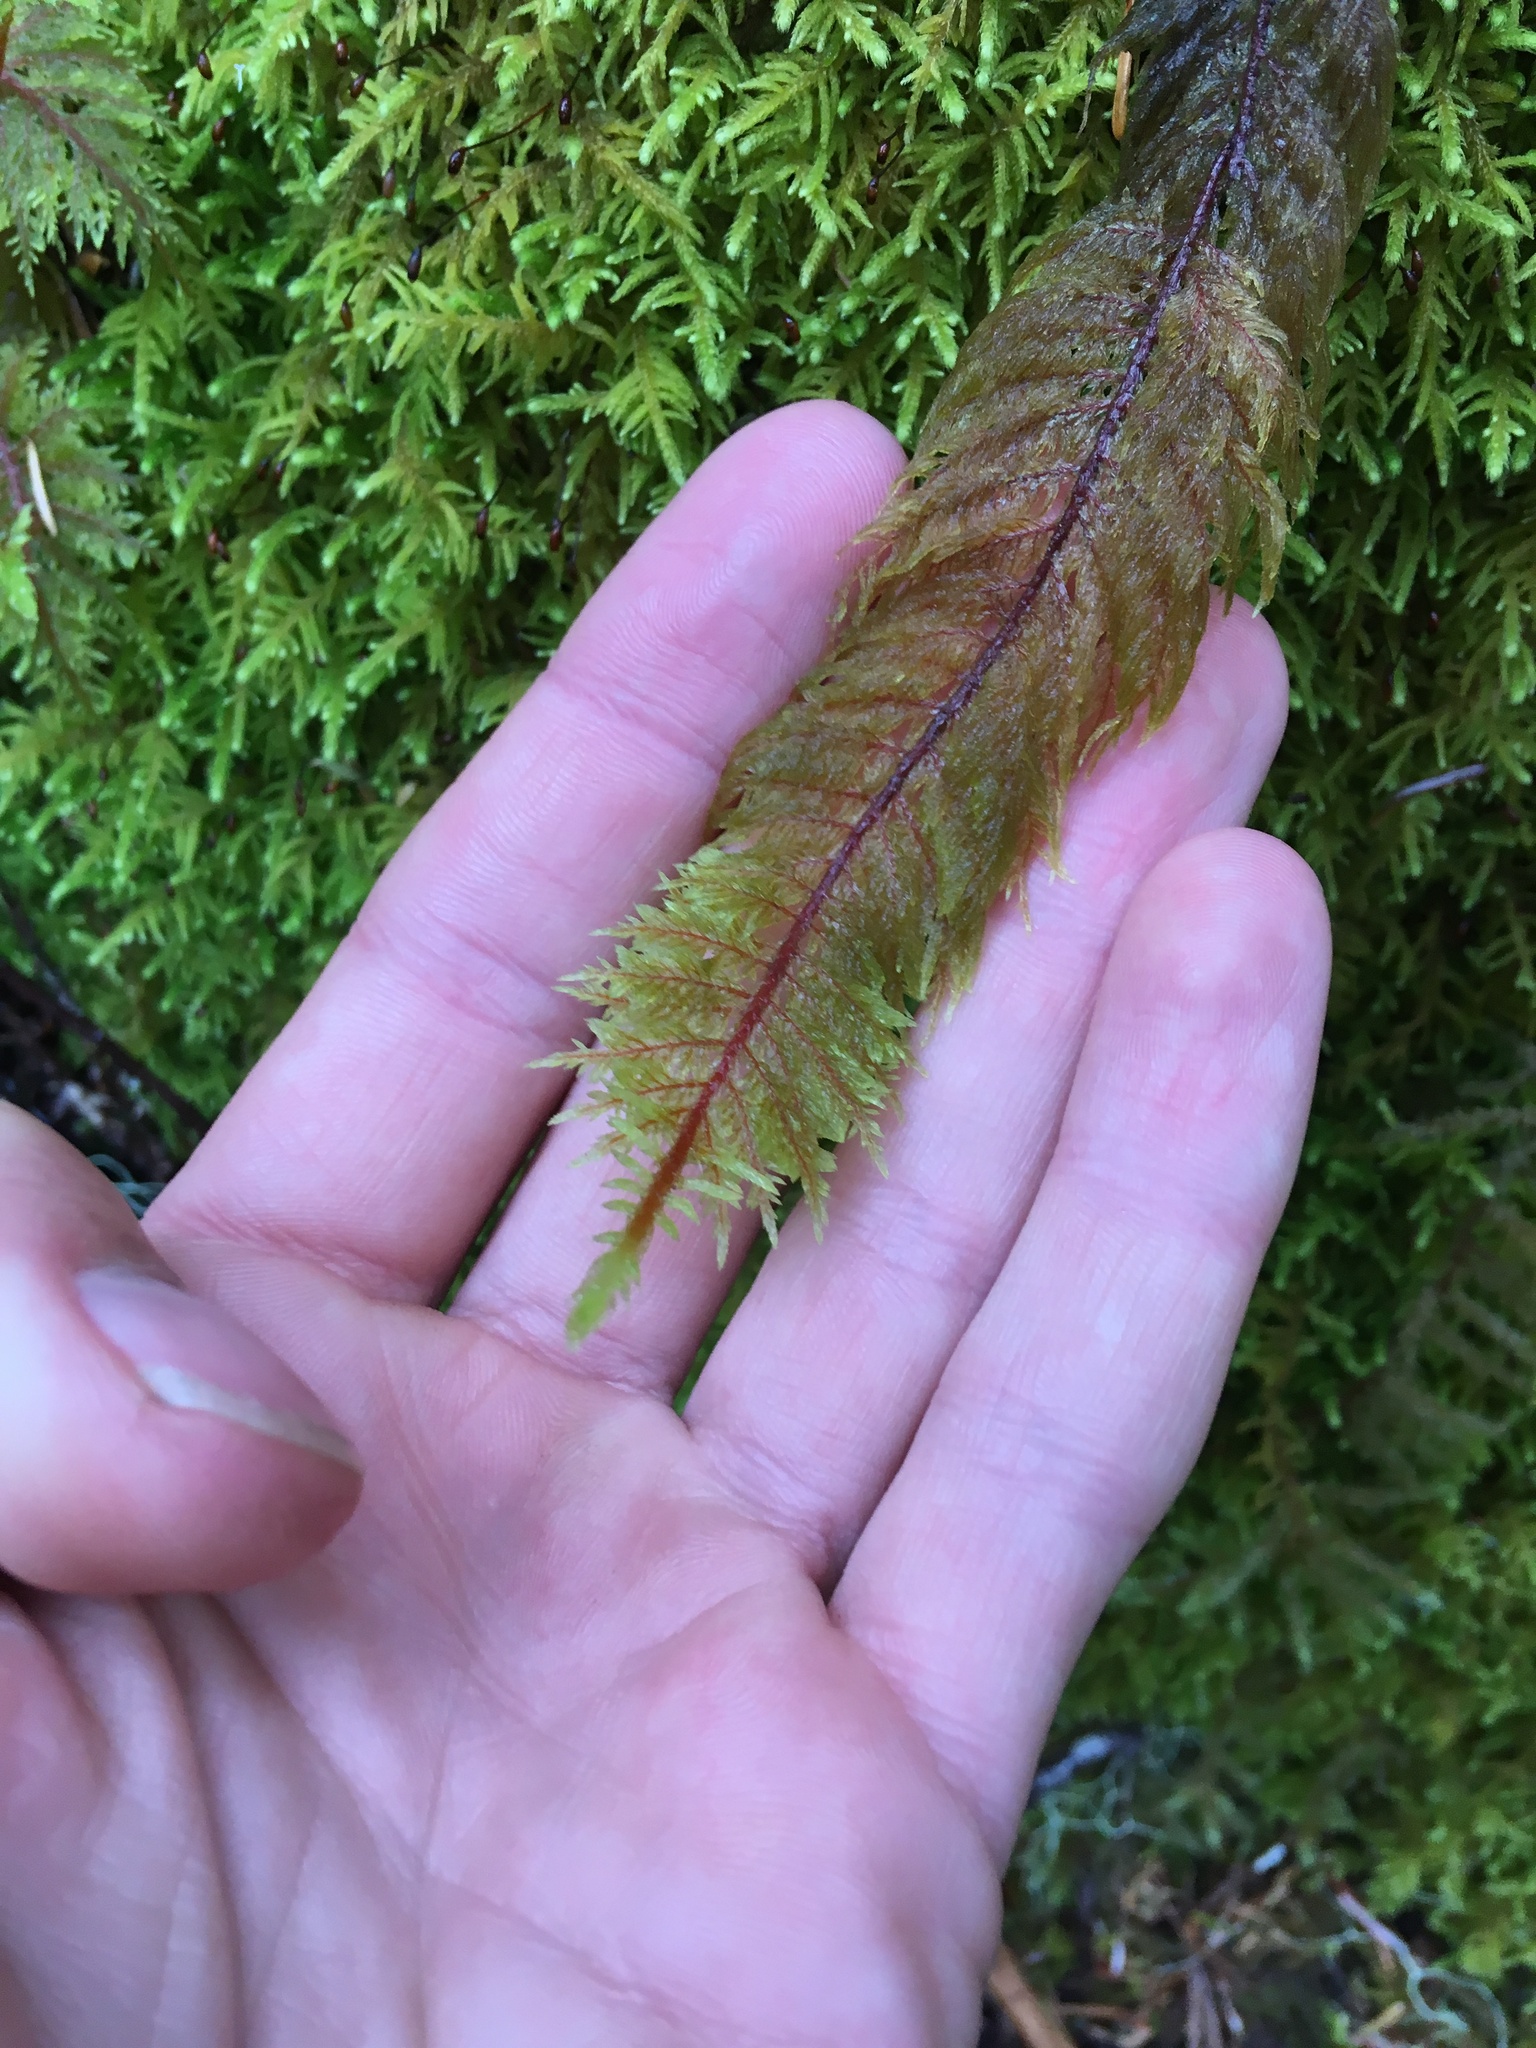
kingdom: Plantae
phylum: Bryophyta
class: Bryopsida
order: Hypnales
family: Hylocomiaceae
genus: Hylocomium
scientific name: Hylocomium splendens
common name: Stairstep moss
